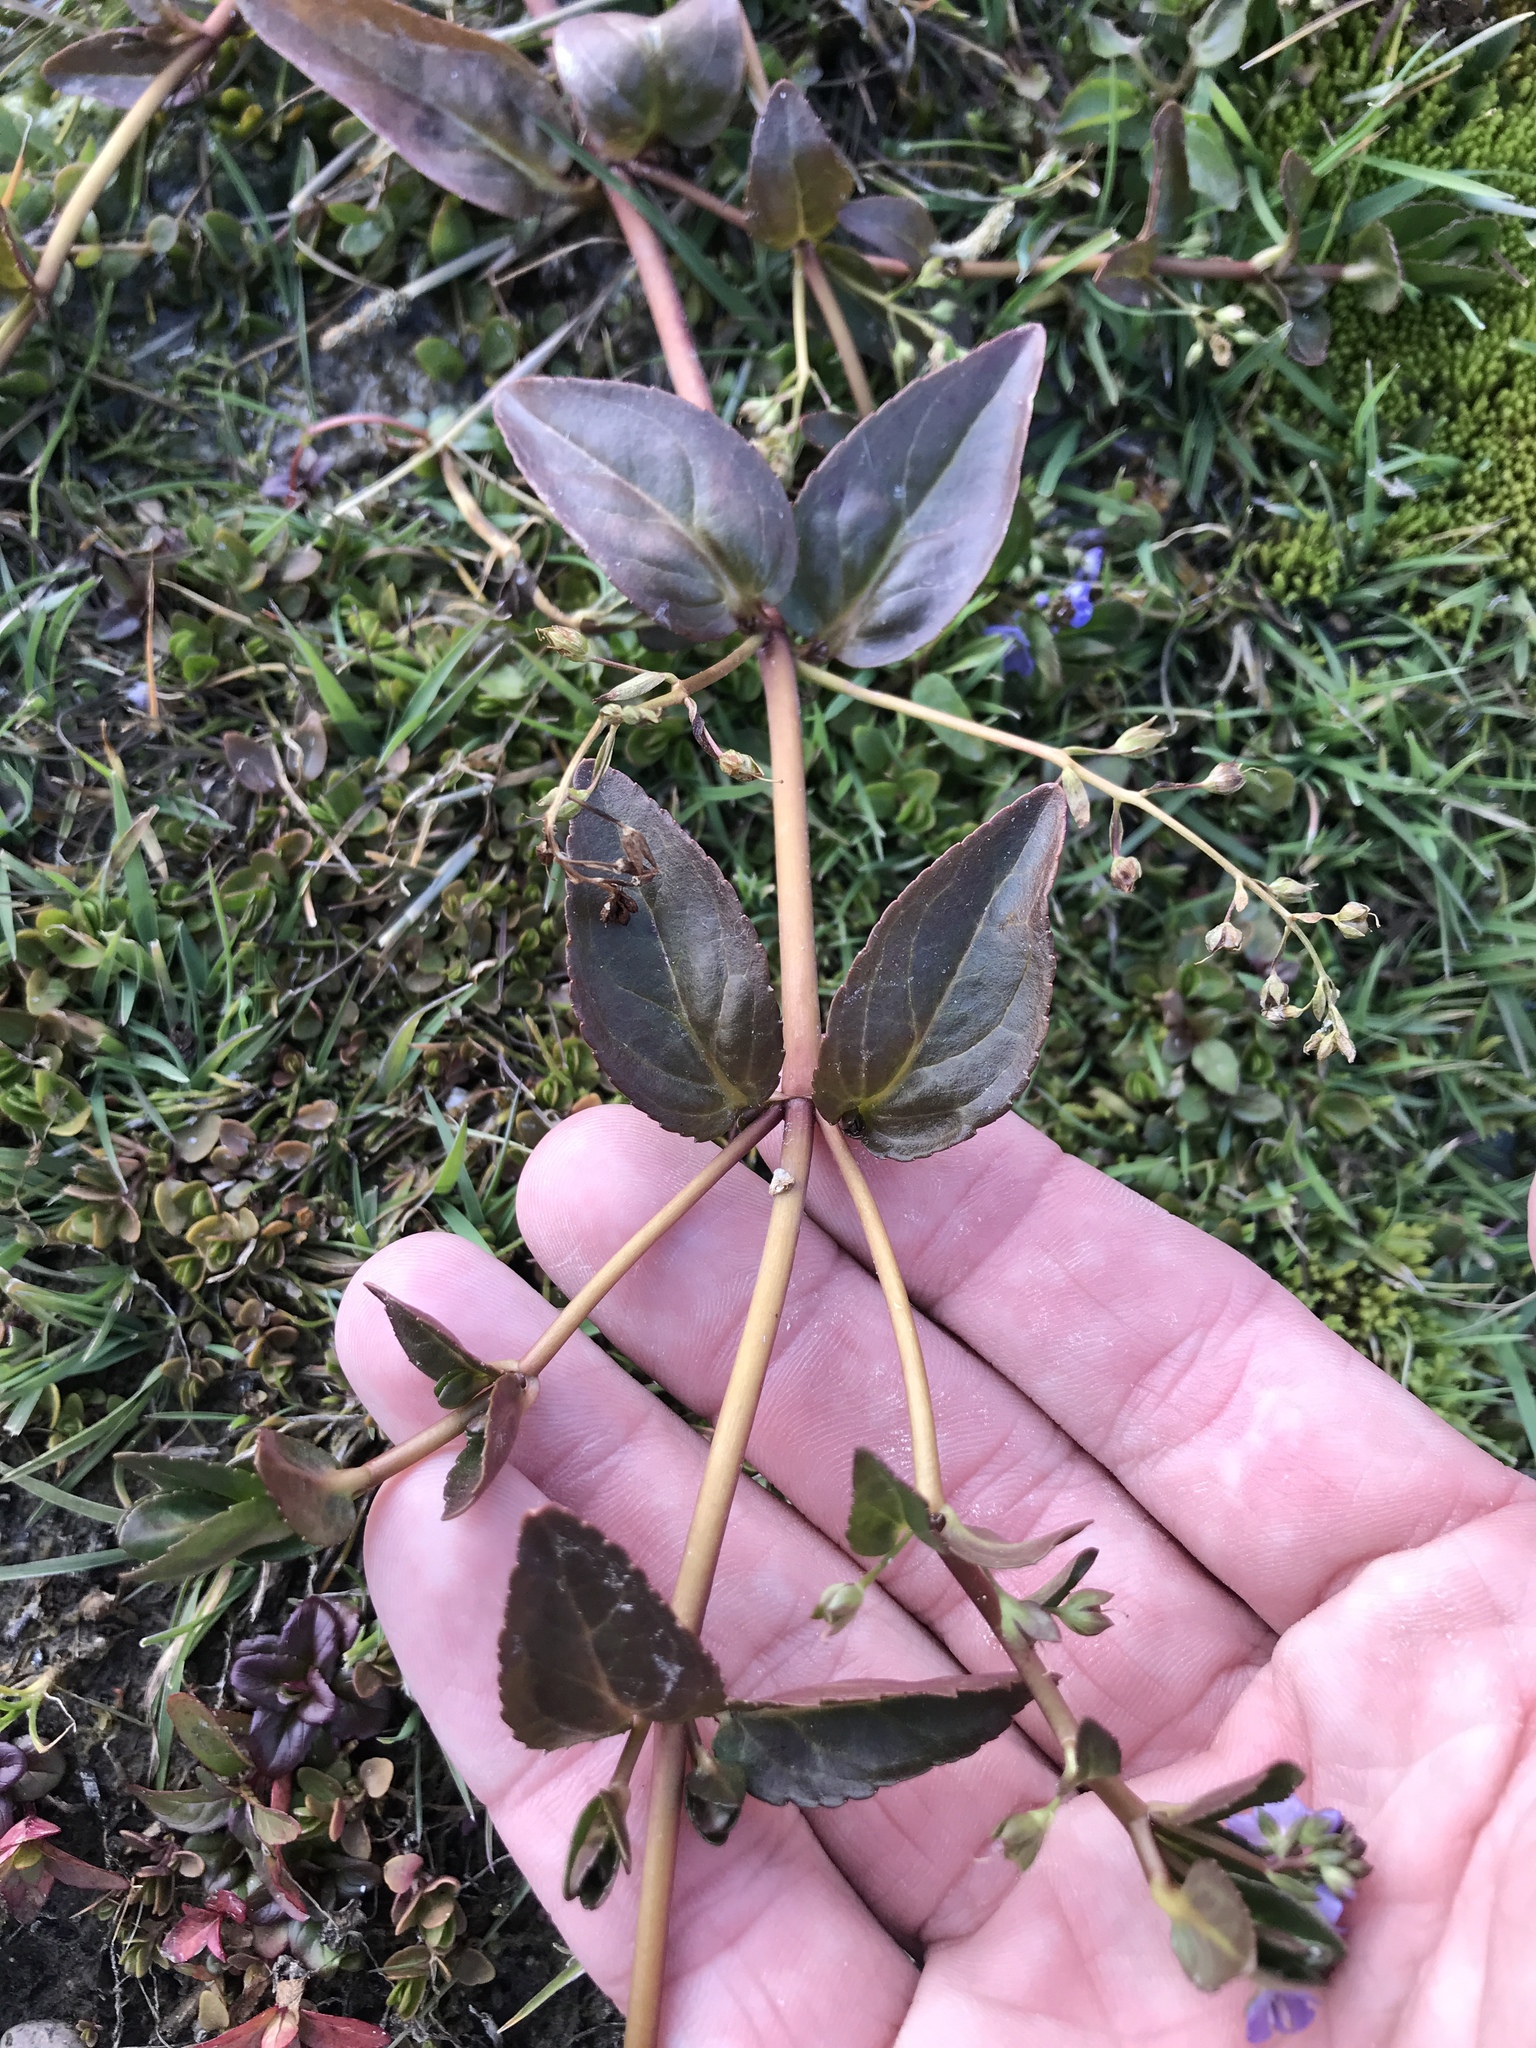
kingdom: Plantae
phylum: Tracheophyta
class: Magnoliopsida
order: Lamiales
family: Plantaginaceae
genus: Veronica
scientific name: Veronica americana
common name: American brooklime
